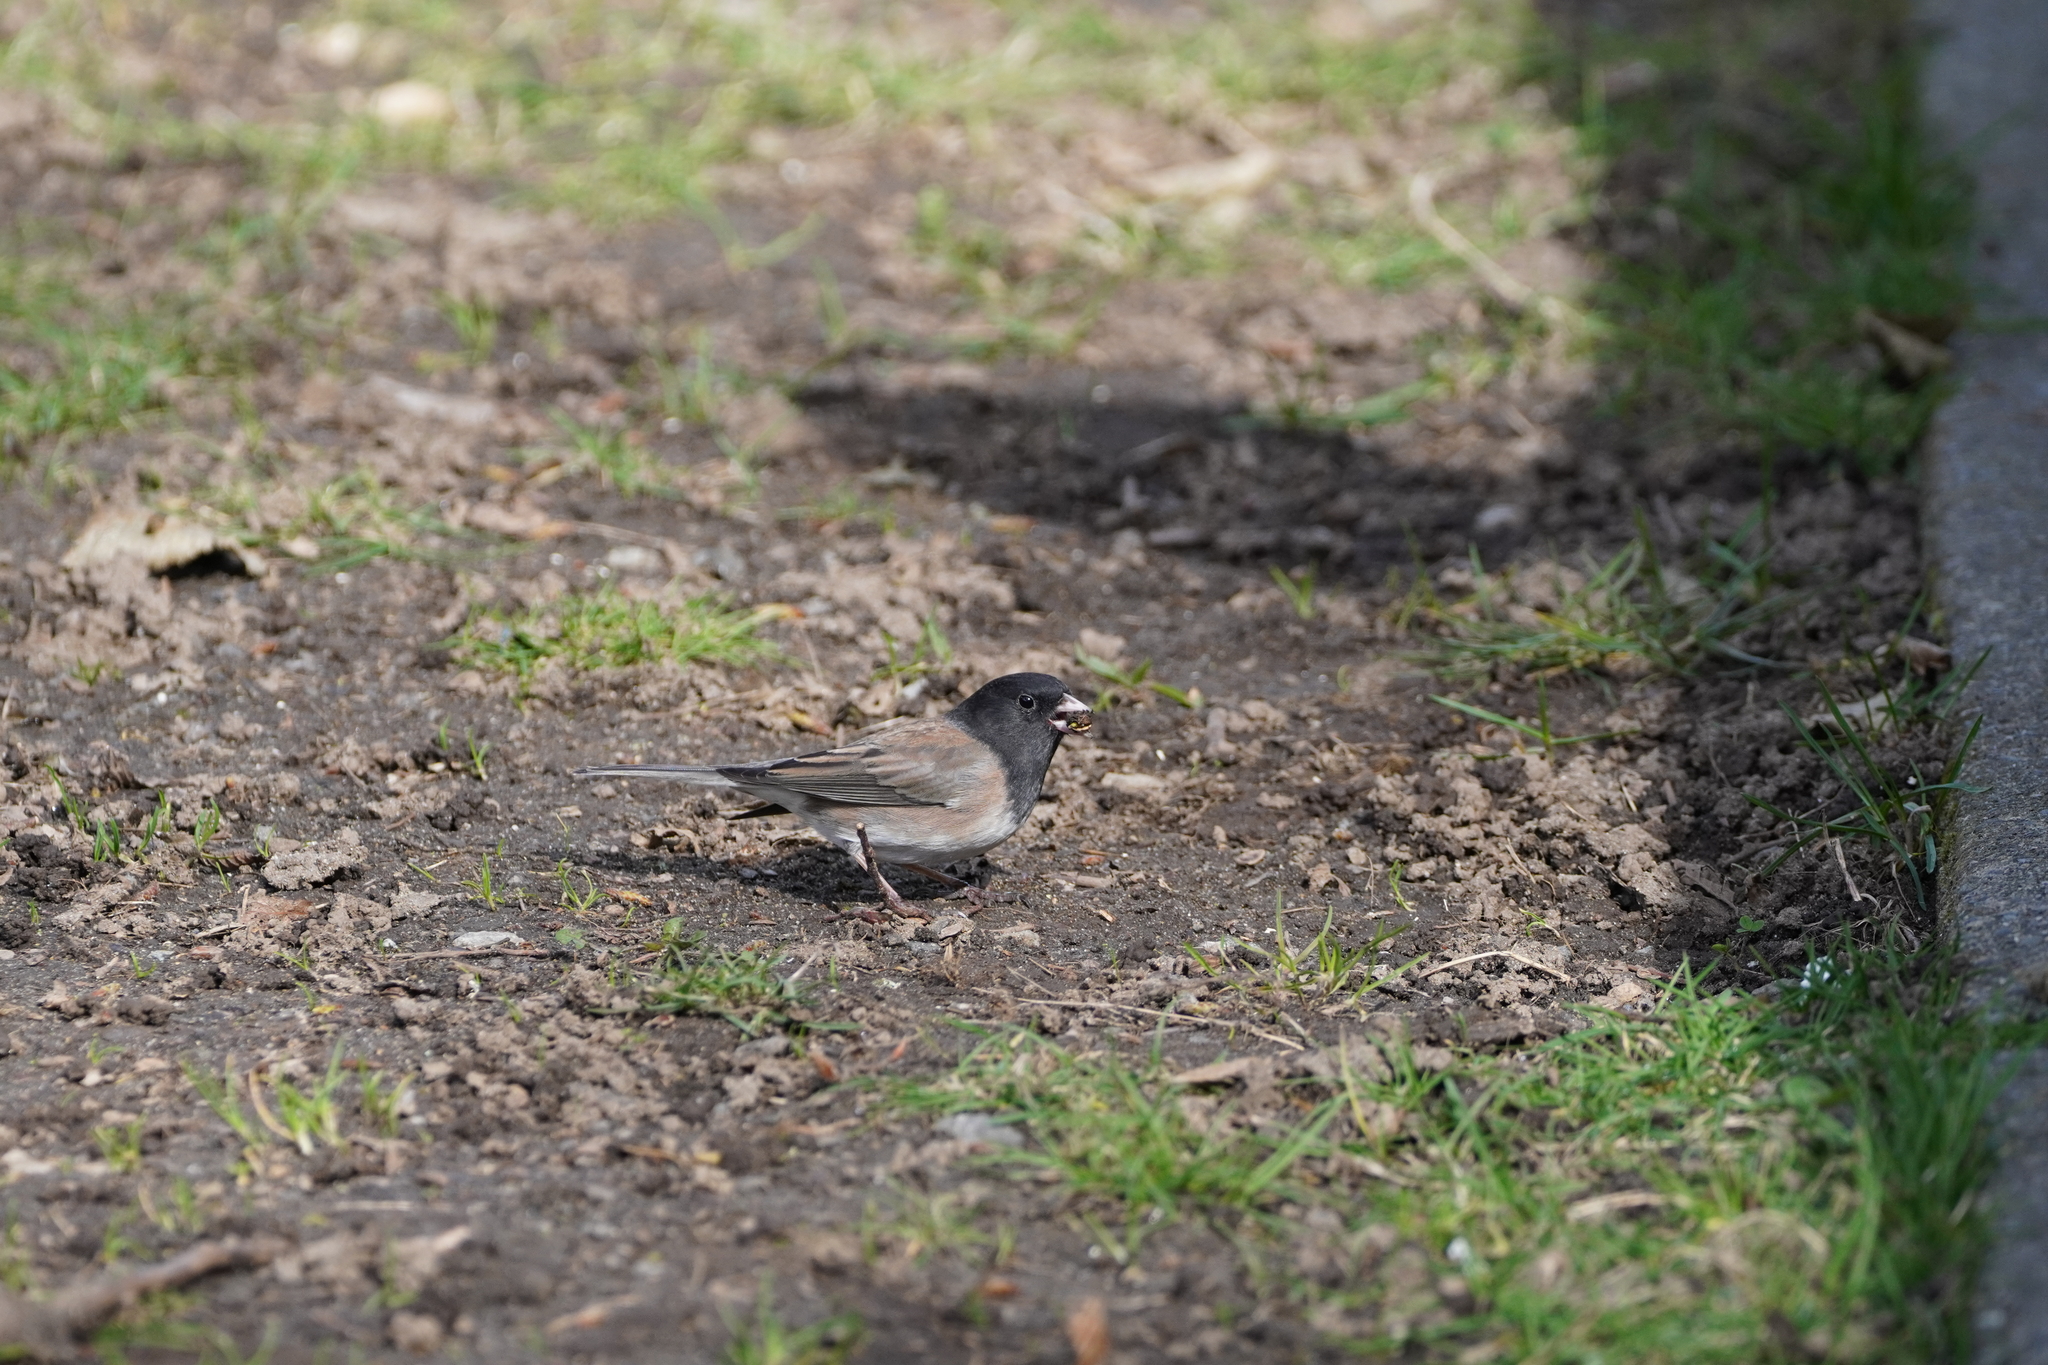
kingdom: Animalia
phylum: Chordata
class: Aves
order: Passeriformes
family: Passerellidae
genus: Junco
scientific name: Junco hyemalis
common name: Dark-eyed junco
